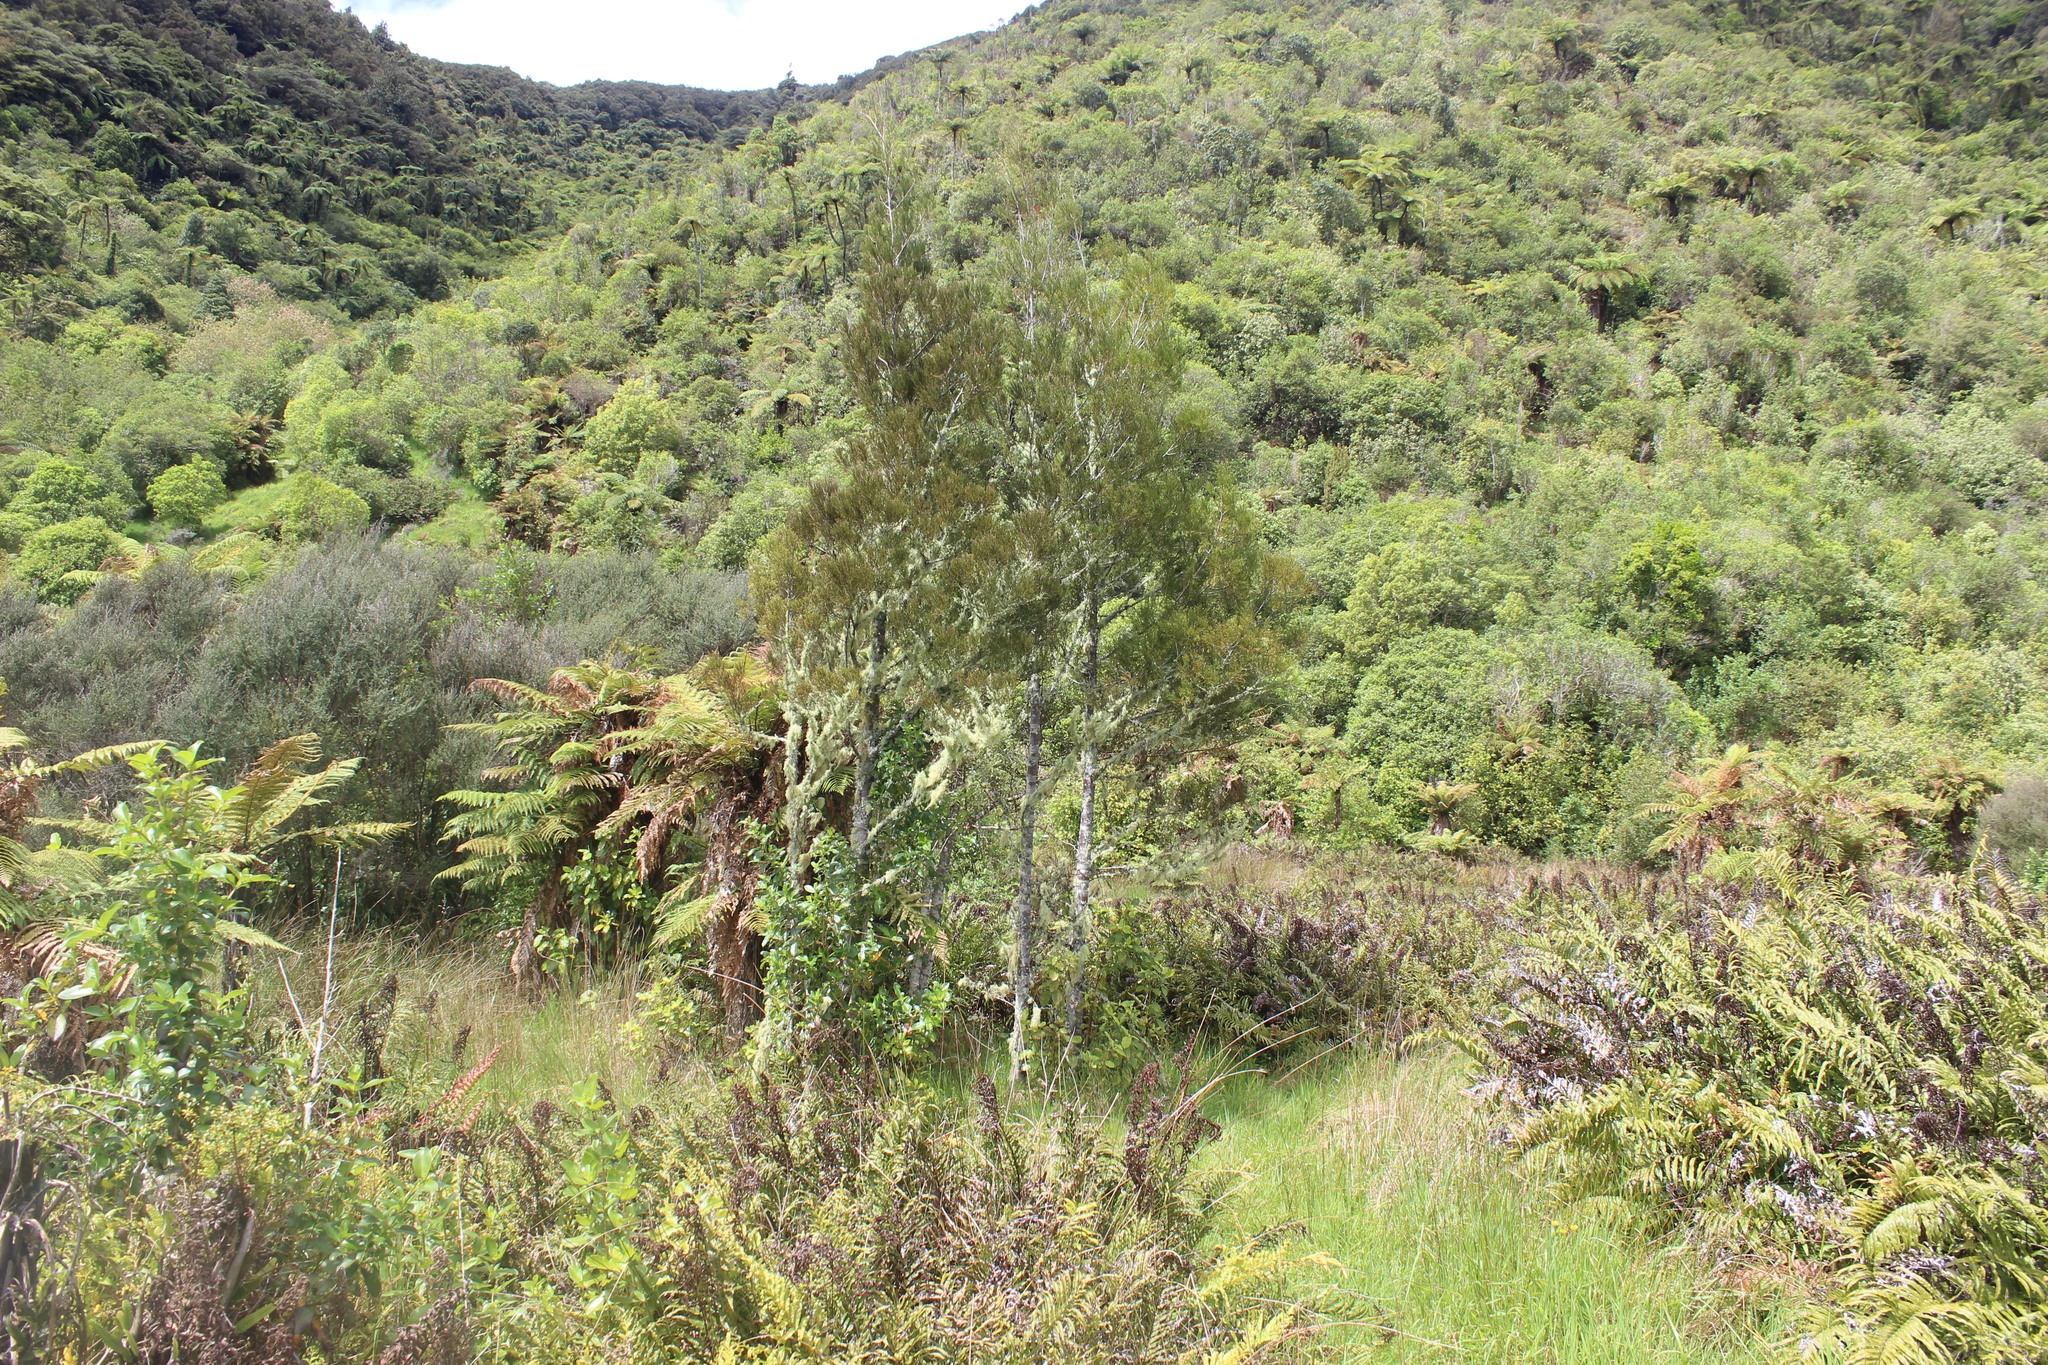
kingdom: Plantae
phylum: Tracheophyta
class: Pinopsida
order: Pinales
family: Podocarpaceae
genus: Dacrycarpus
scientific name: Dacrycarpus dacrydioides
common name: White pine
